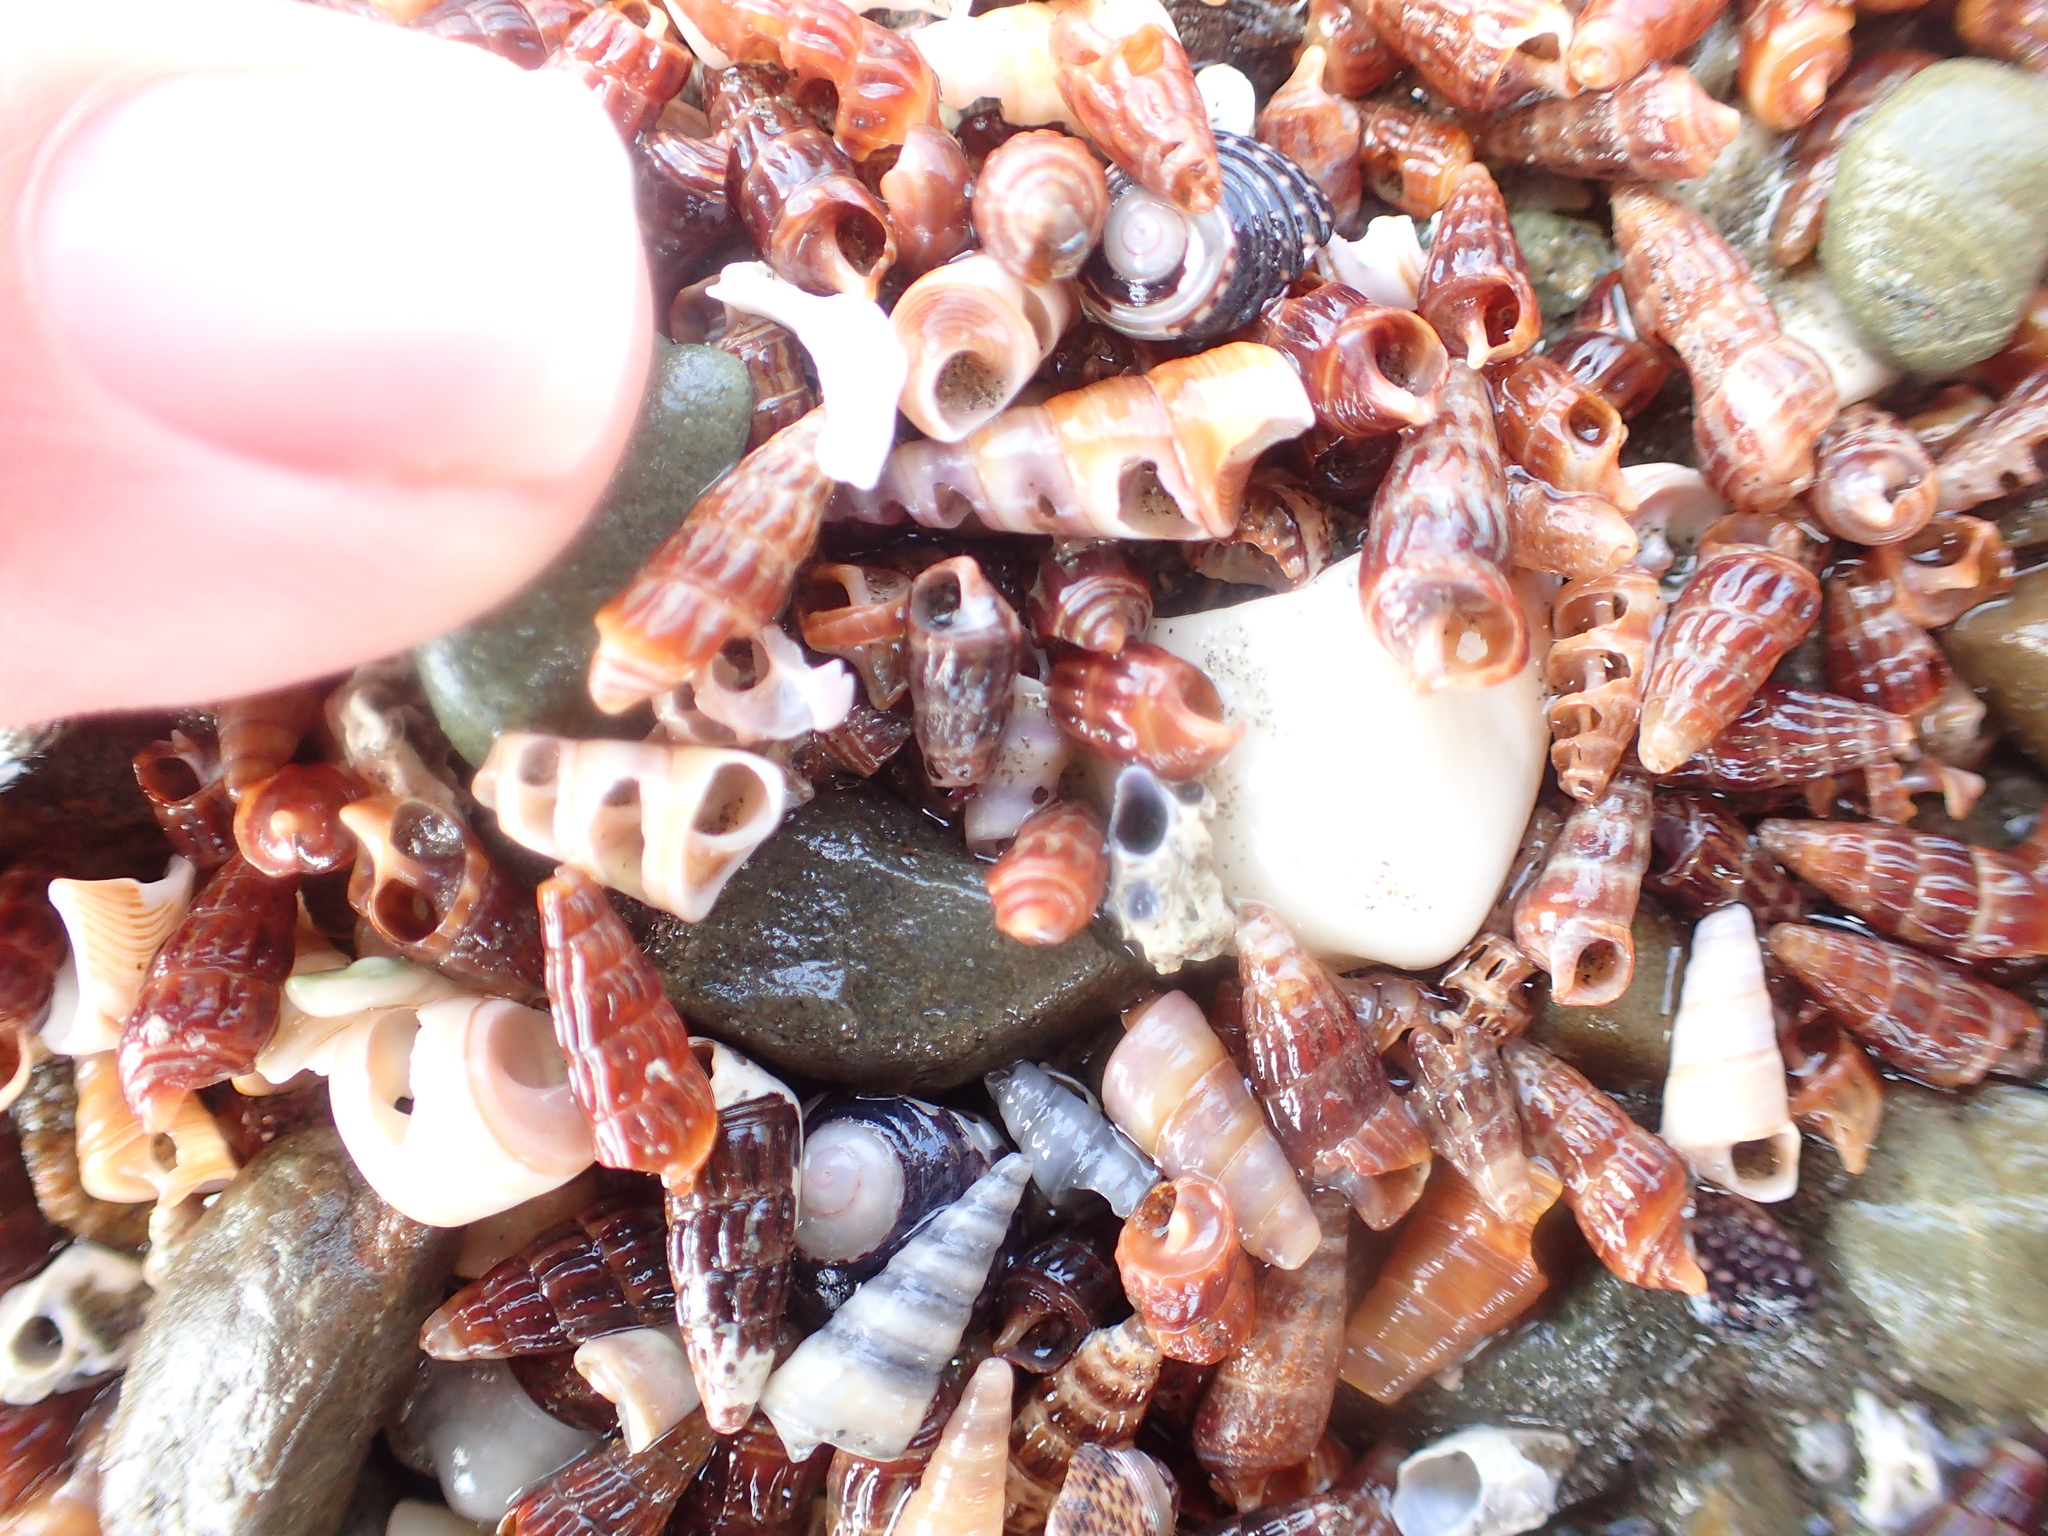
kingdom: Animalia
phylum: Mollusca
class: Gastropoda
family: Batillariidae
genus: Zeacumantus
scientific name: Zeacumantus subcarinatus
